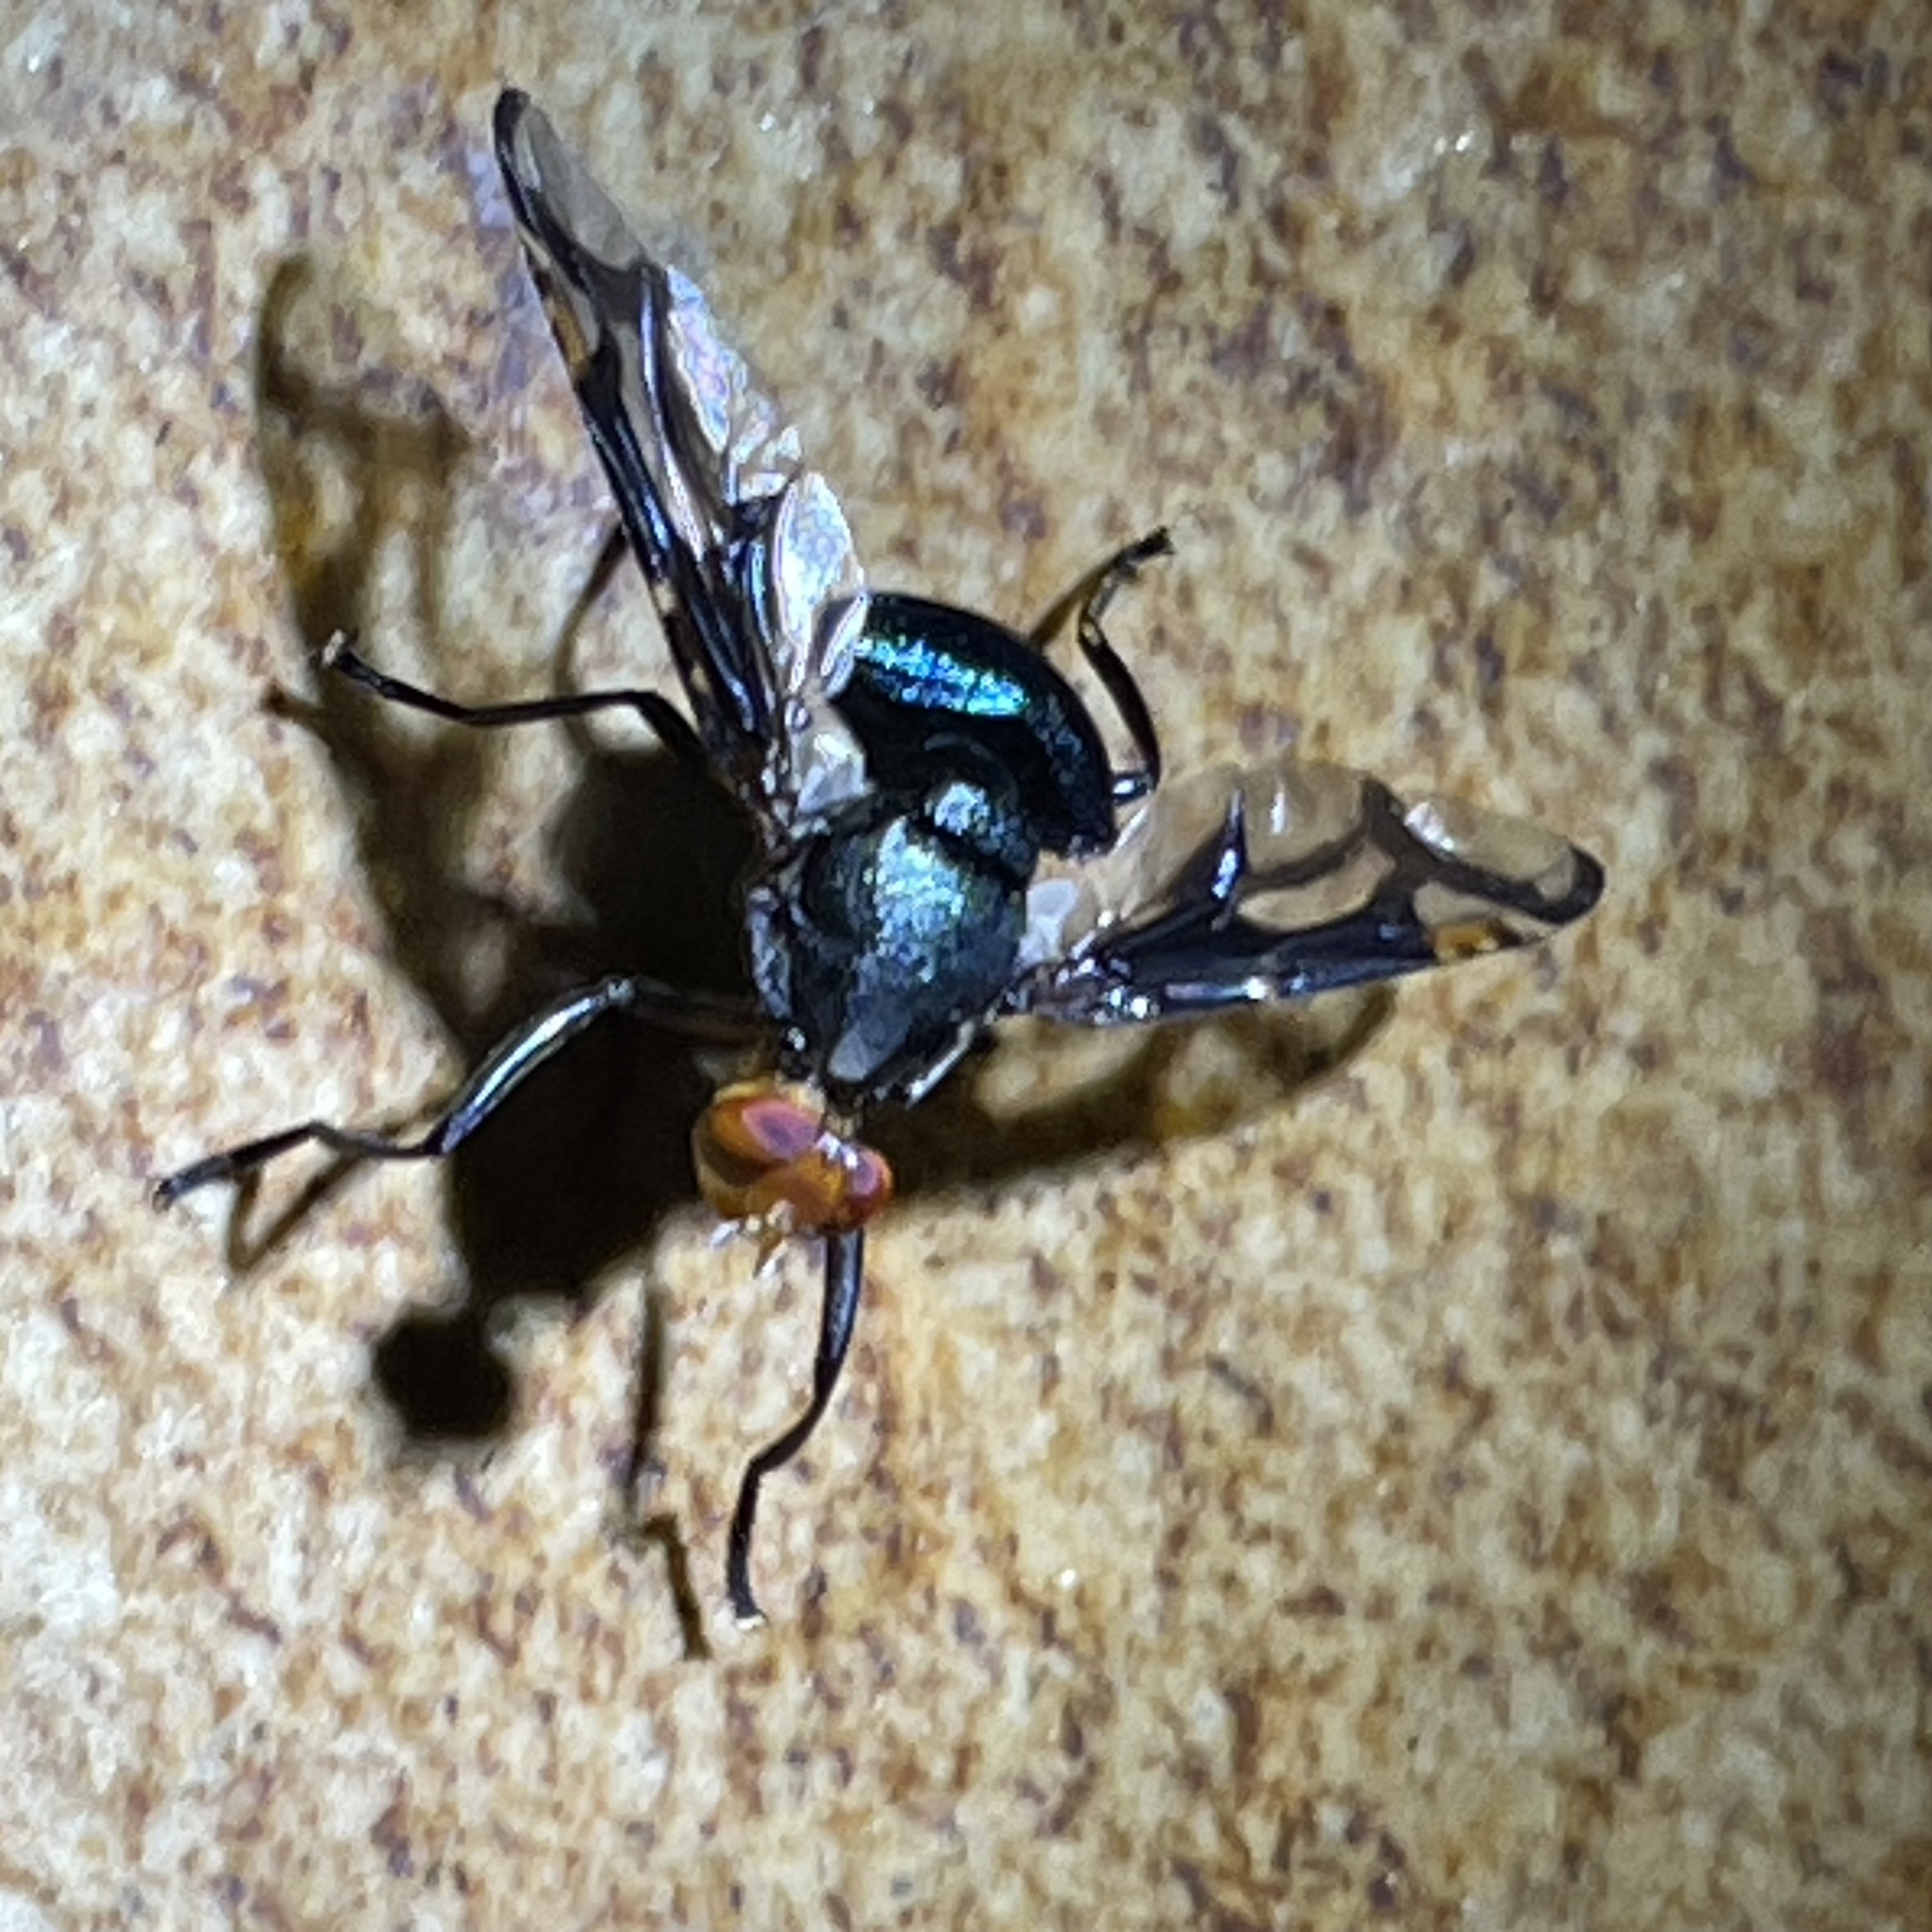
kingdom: Animalia
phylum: Arthropoda
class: Insecta
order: Diptera
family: Platystomatidae
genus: Loxonevra
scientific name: Loxonevra decora
